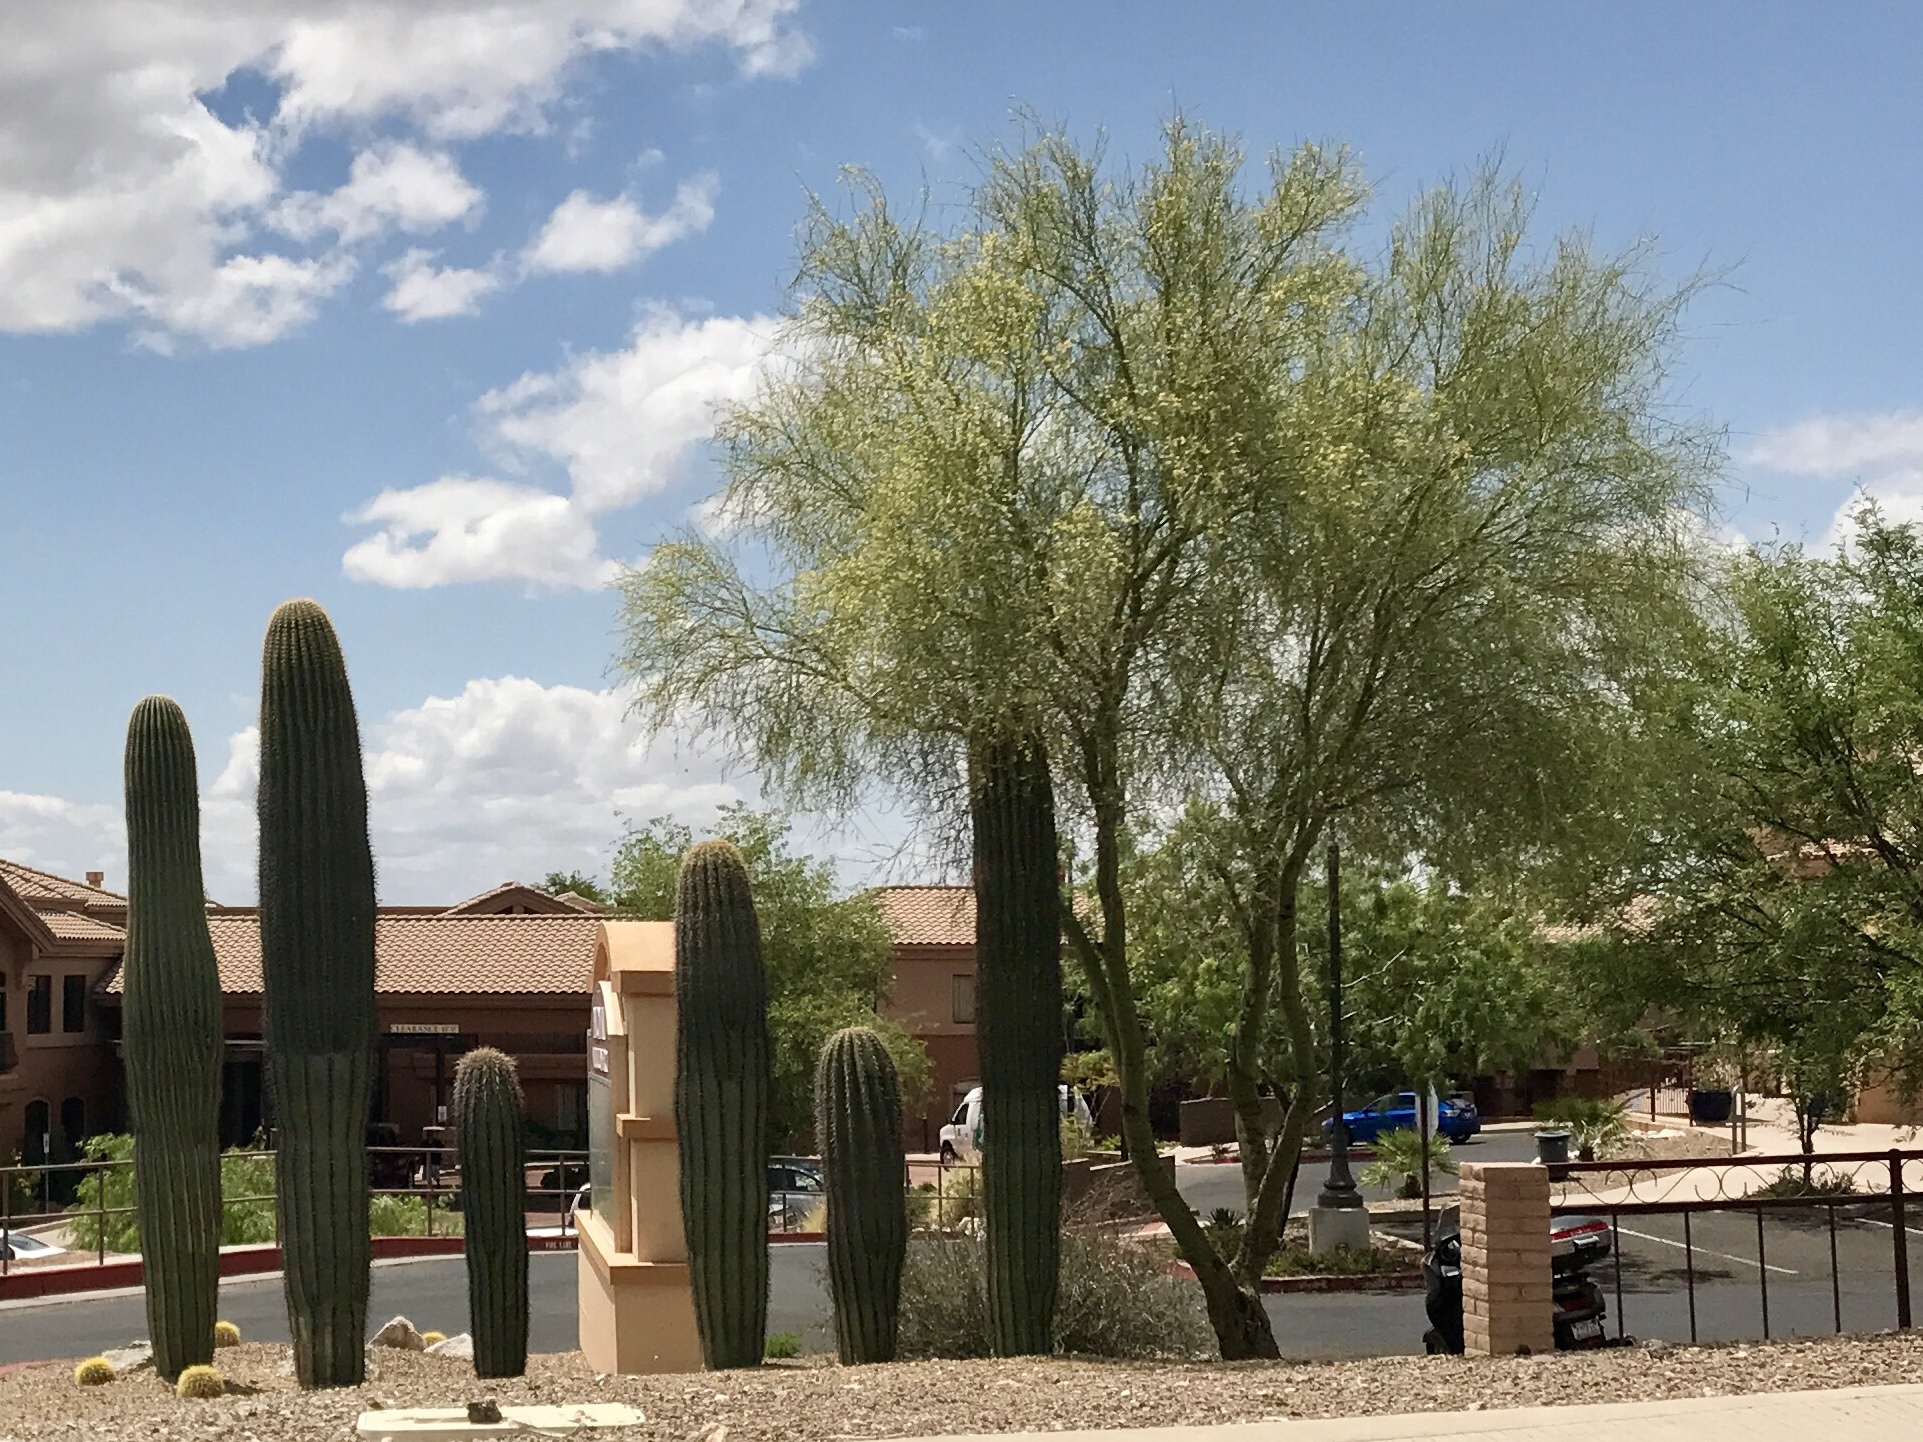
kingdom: Plantae
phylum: Tracheophyta
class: Magnoliopsida
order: Caryophyllales
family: Cactaceae
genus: Carnegiea
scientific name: Carnegiea gigantea
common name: Saguaro
